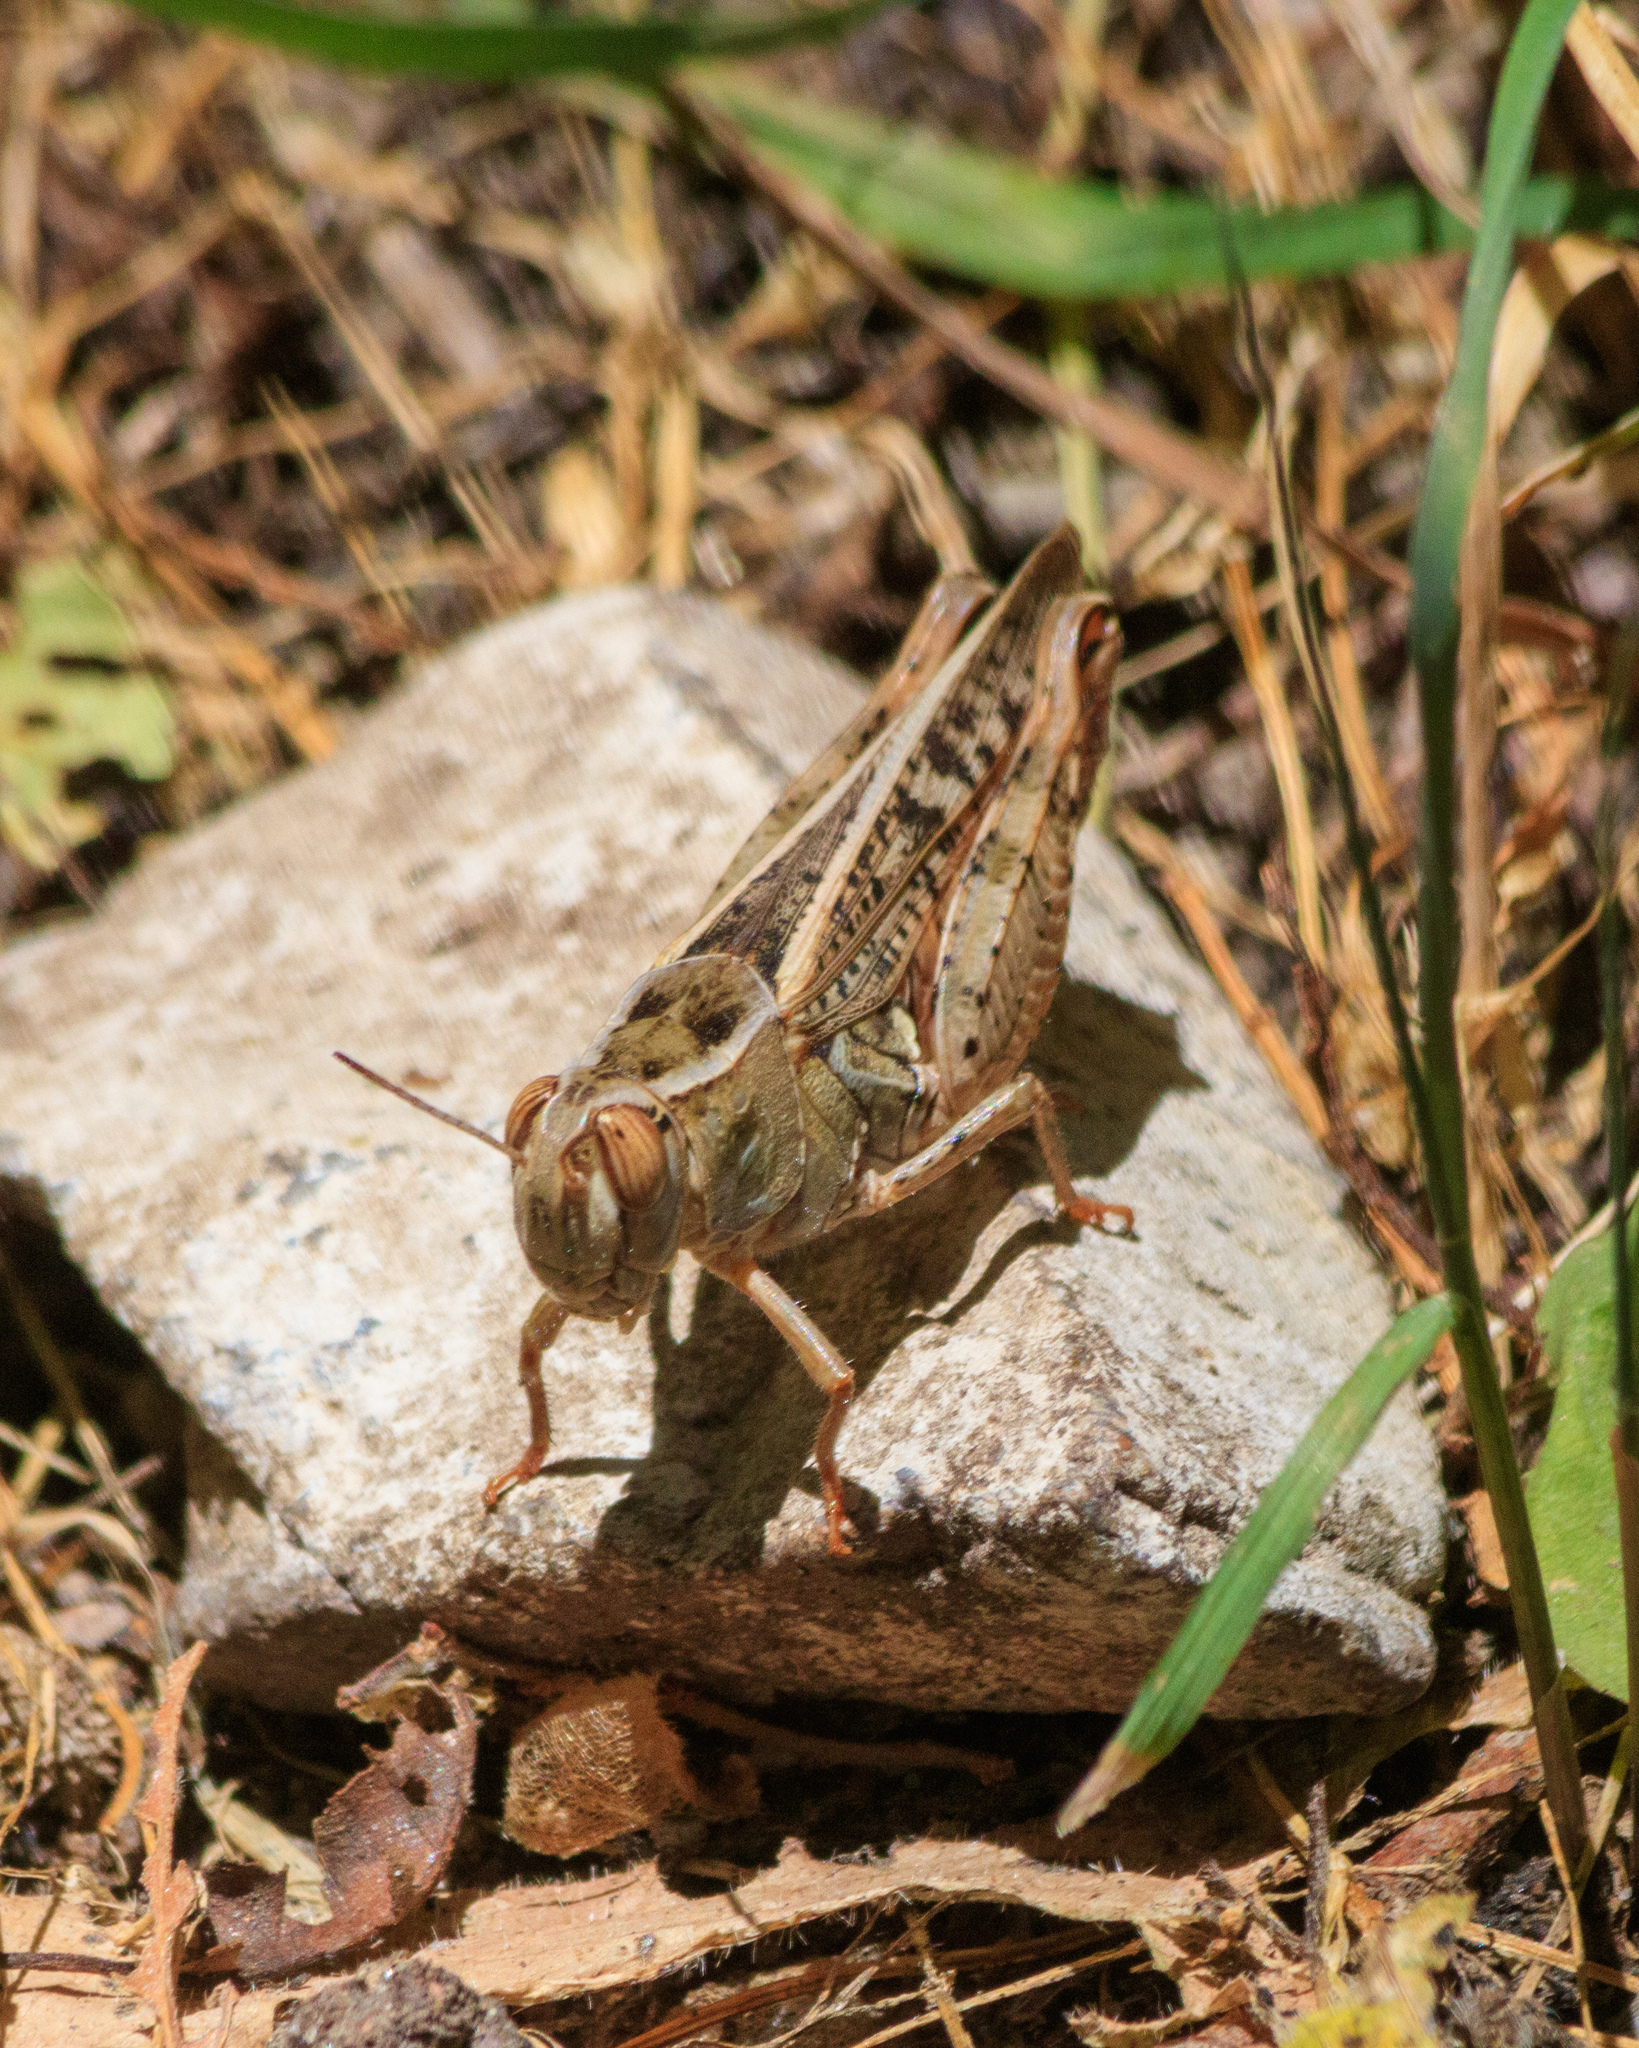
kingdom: Animalia
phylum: Arthropoda
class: Insecta
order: Orthoptera
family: Acrididae
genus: Calliptamus
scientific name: Calliptamus barbarus
